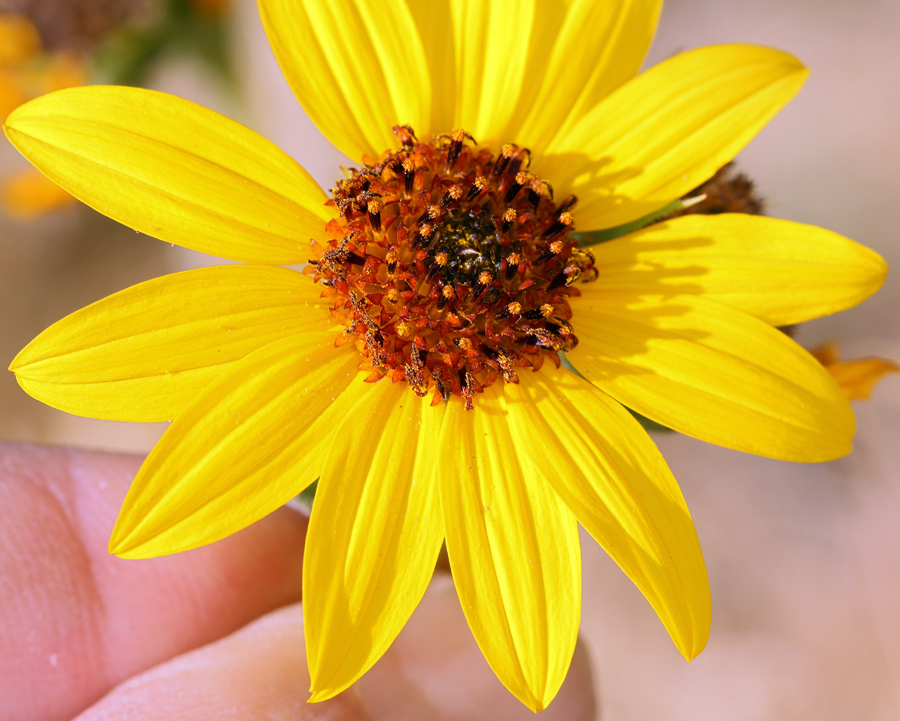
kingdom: Plantae
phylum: Tracheophyta
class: Magnoliopsida
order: Asterales
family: Asteraceae
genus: Helianthus
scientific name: Helianthus annuus
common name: Sunflower
